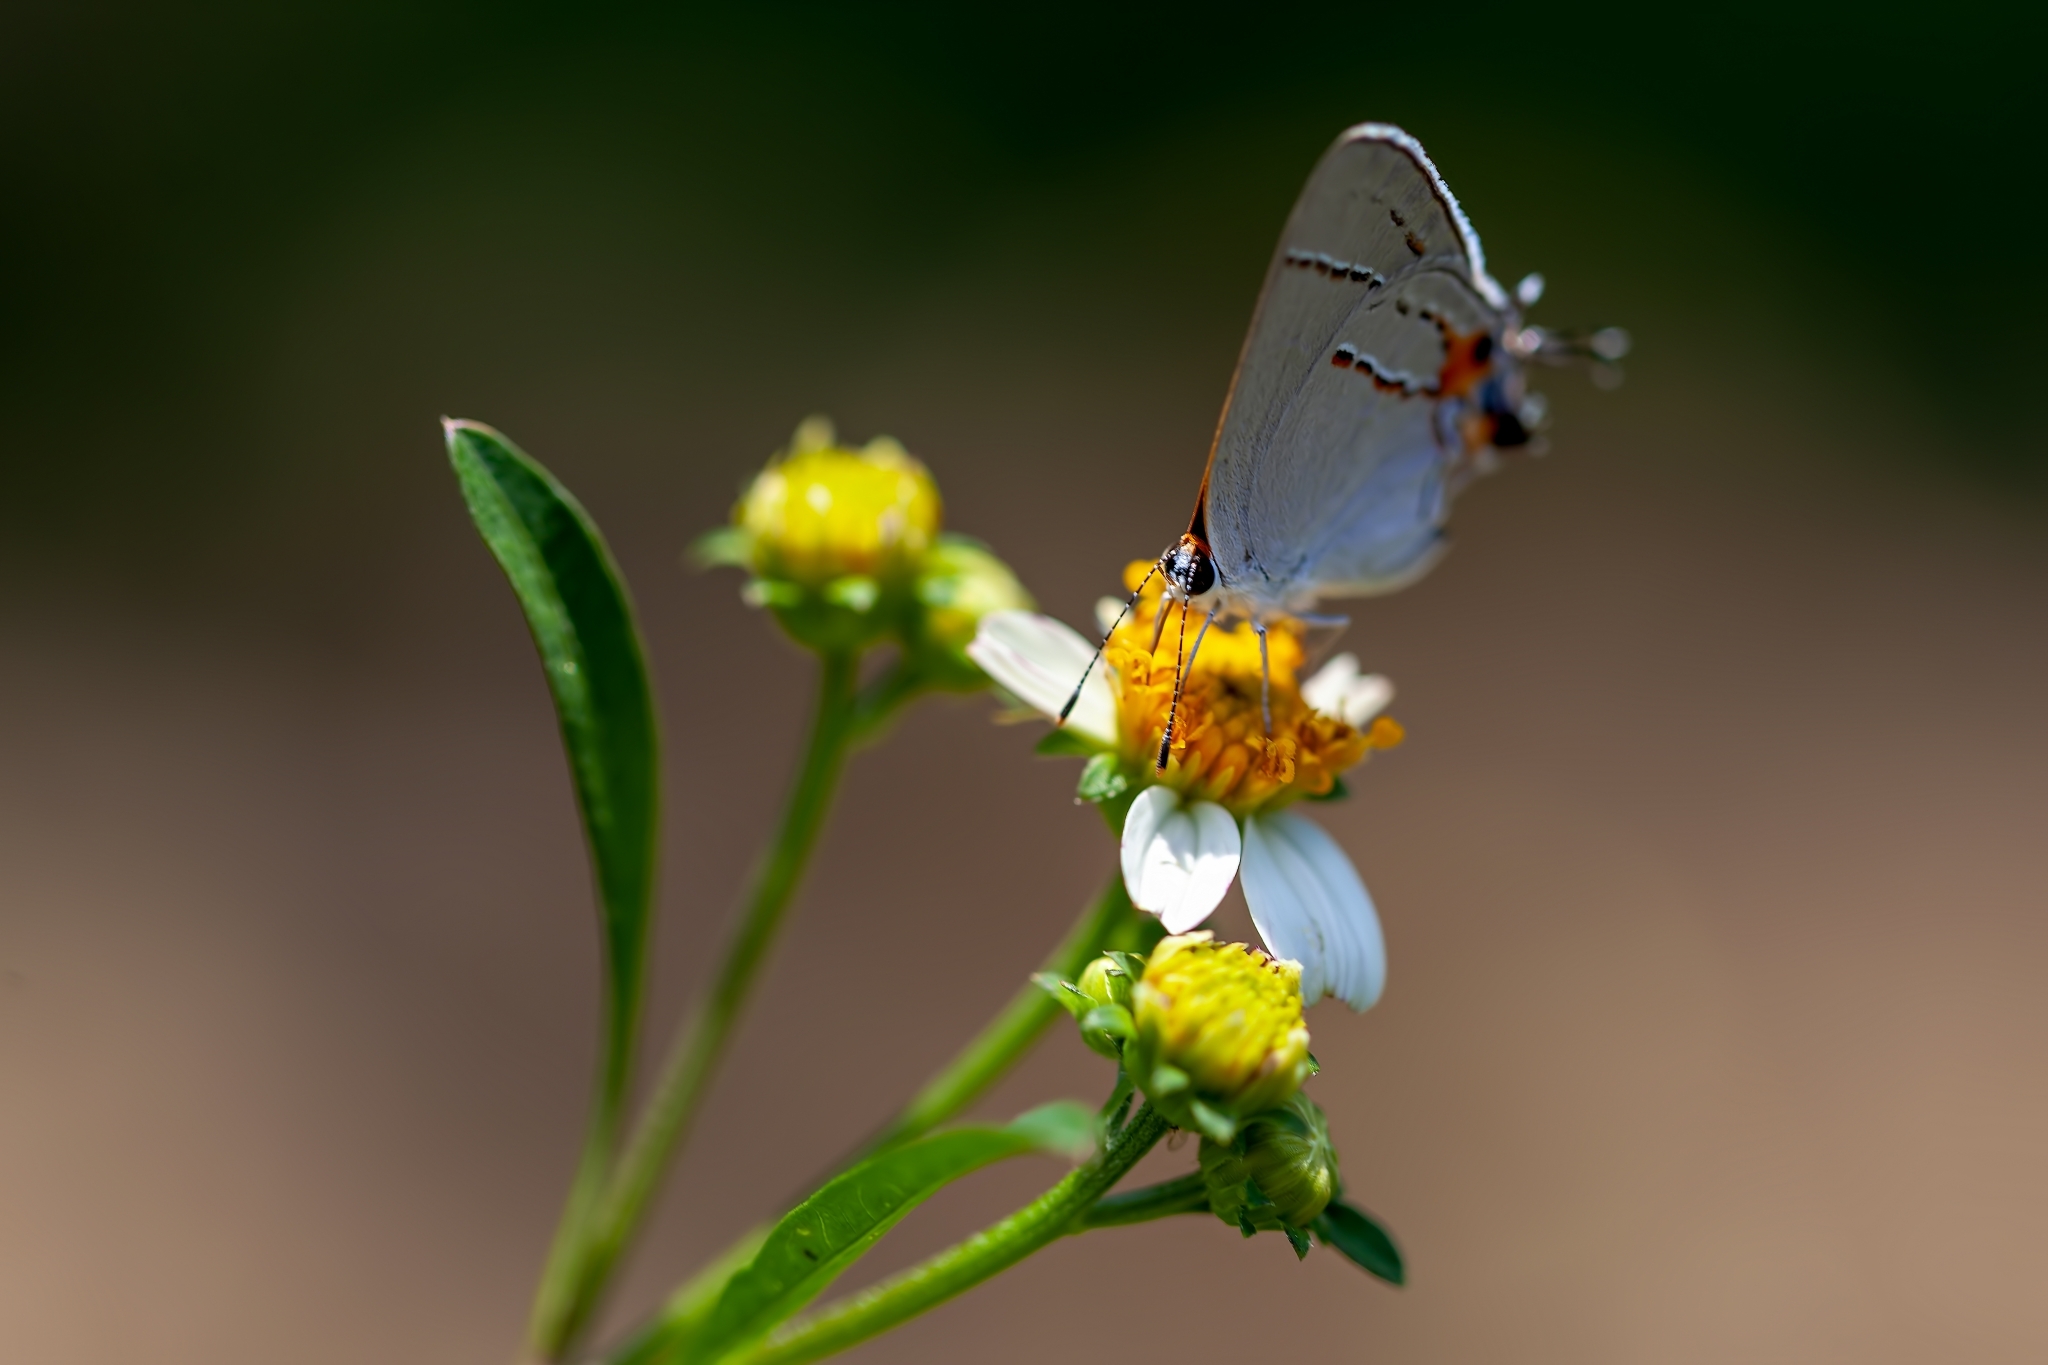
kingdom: Animalia
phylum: Arthropoda
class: Insecta
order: Lepidoptera
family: Lycaenidae
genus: Strymon
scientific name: Strymon melinus
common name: Gray hairstreak
